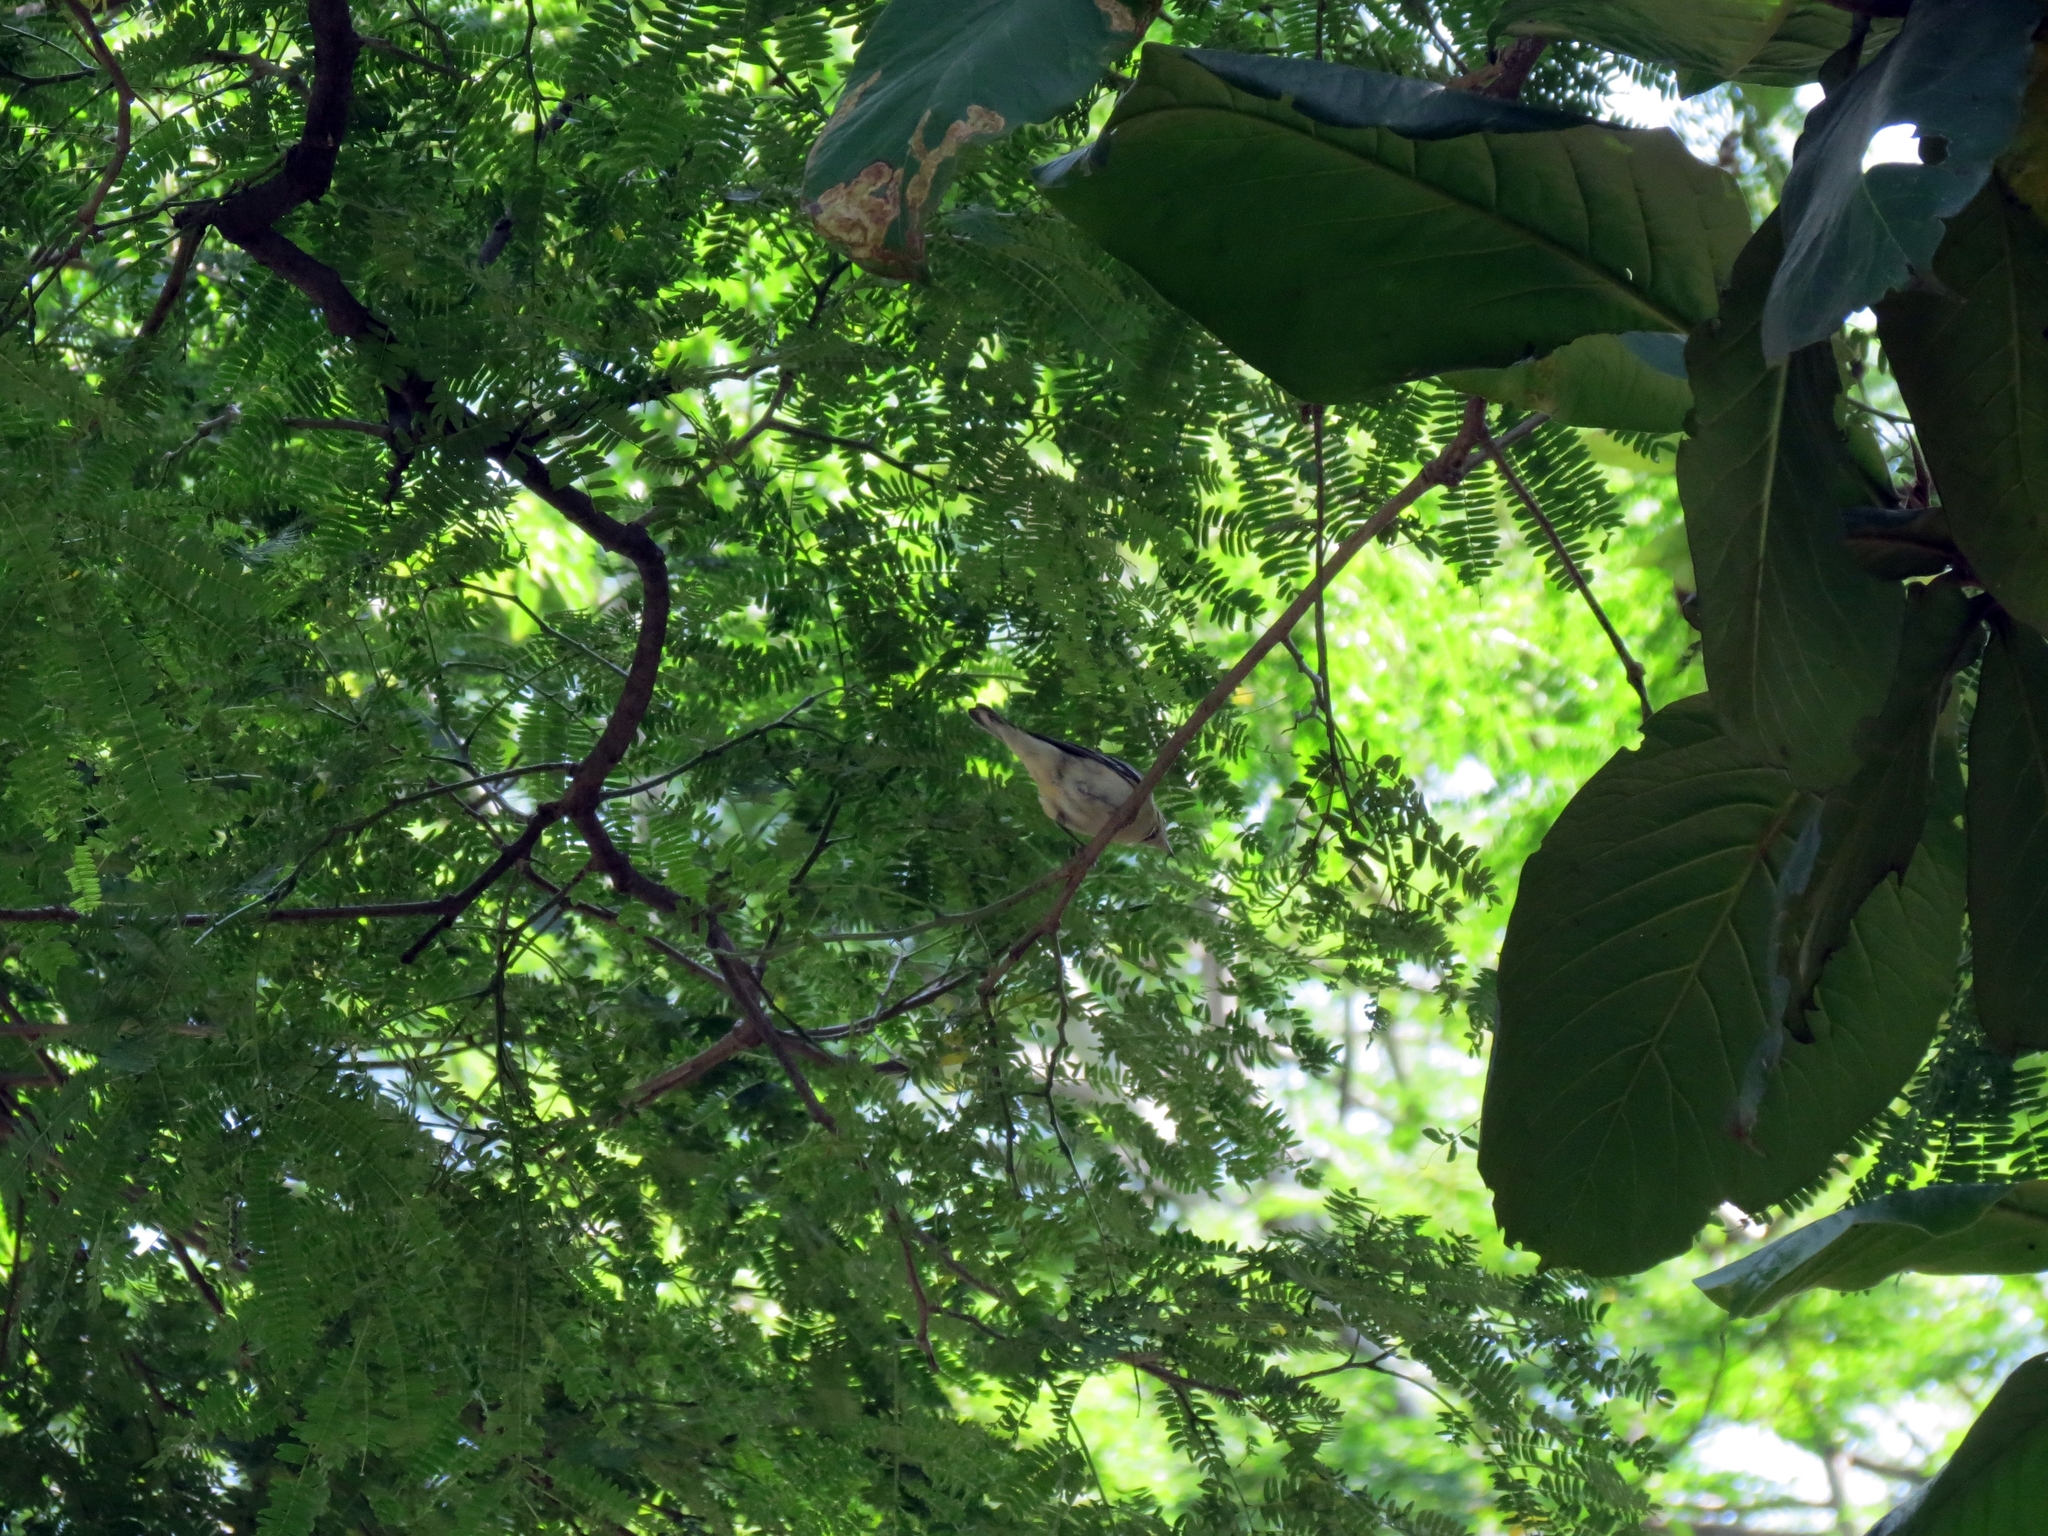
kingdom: Animalia
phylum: Chordata
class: Aves
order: Passeriformes
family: Parulidae
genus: Setophaga
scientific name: Setophaga castanea
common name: Bay-breasted warbler
